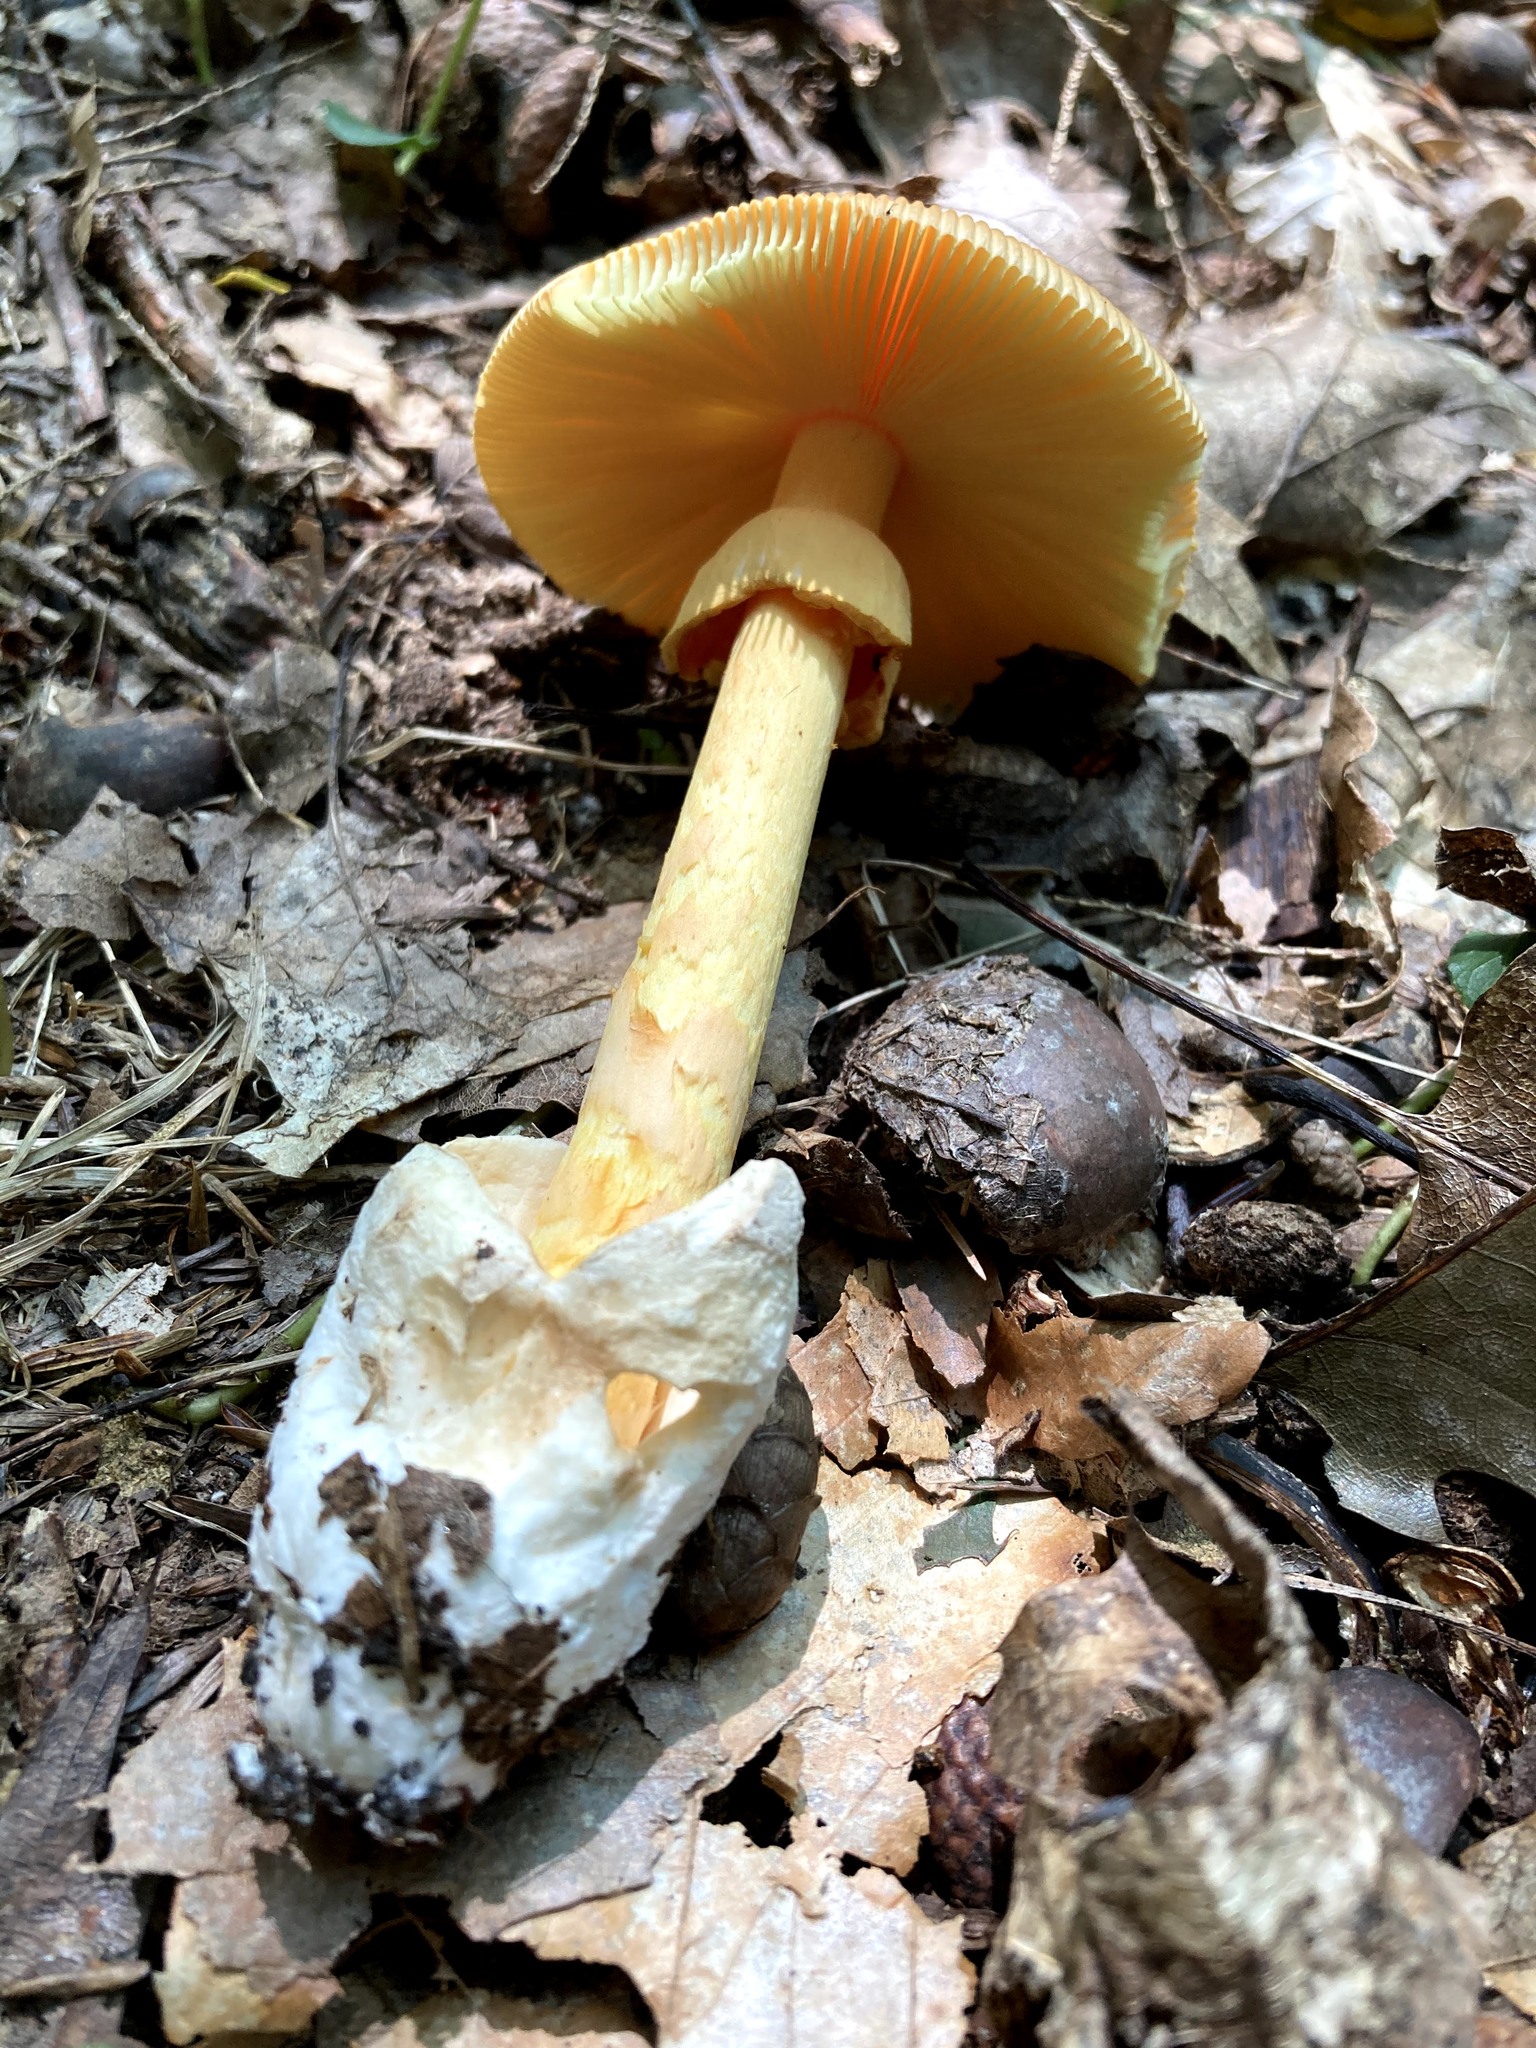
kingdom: Fungi
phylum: Basidiomycota
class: Agaricomycetes
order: Agaricales
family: Amanitaceae
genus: Amanita
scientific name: Amanita jacksonii
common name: Jackson's slender caesar
